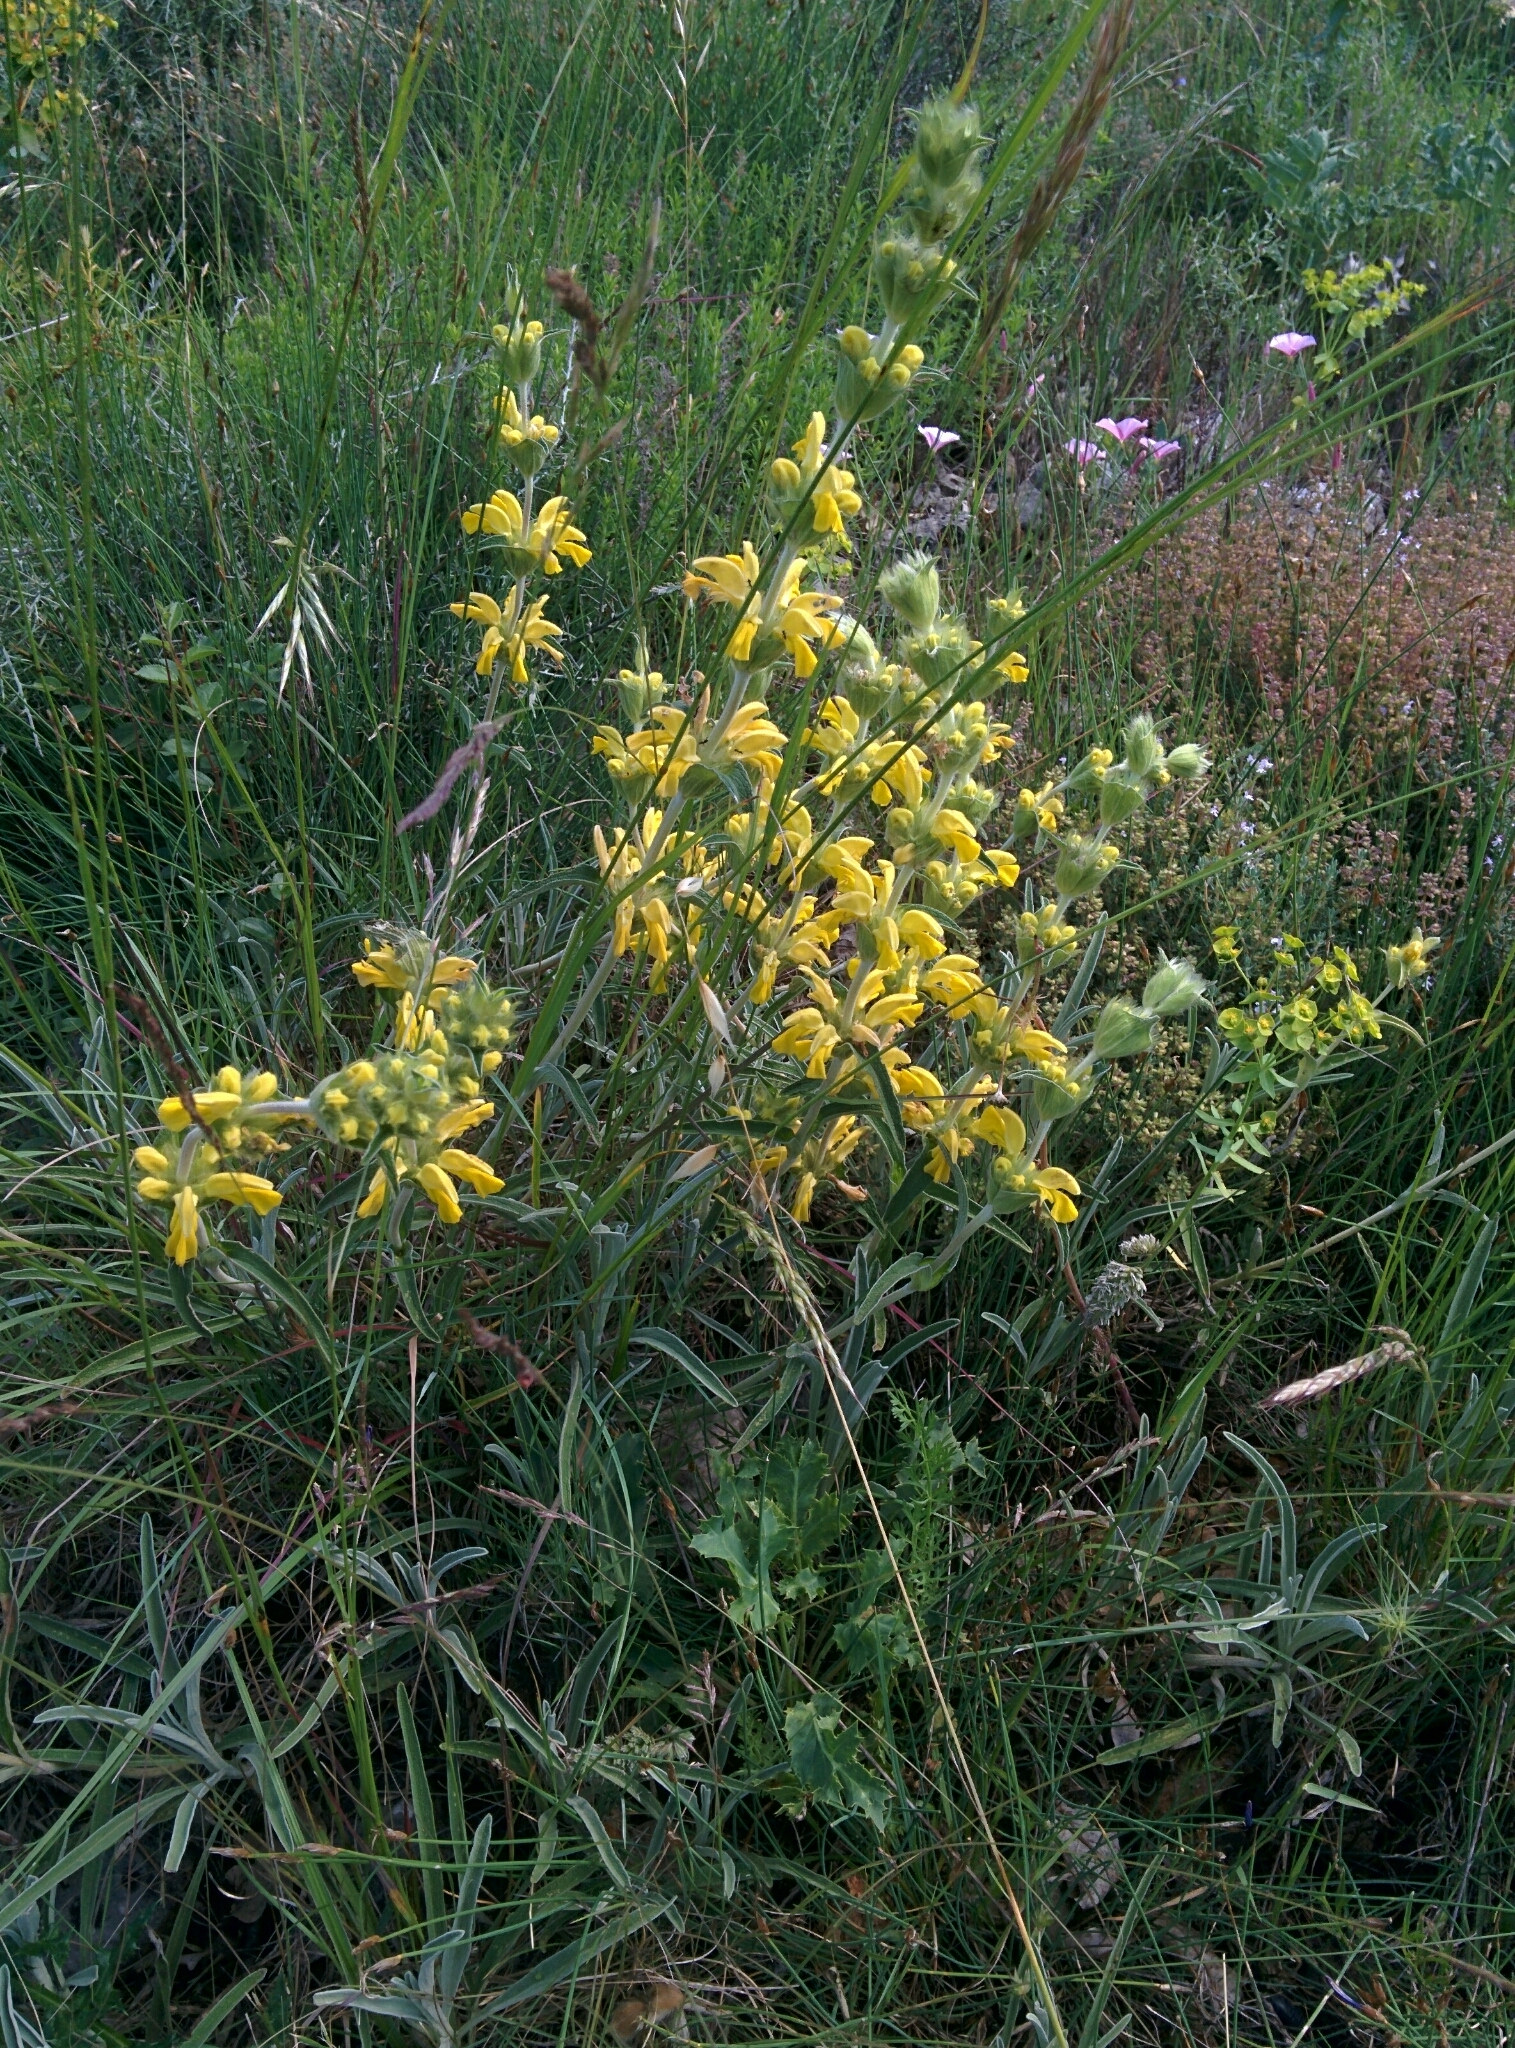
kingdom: Plantae
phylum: Tracheophyta
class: Magnoliopsida
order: Lamiales
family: Lamiaceae
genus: Phlomis
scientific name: Phlomis lychnitis
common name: Lampwickplant
